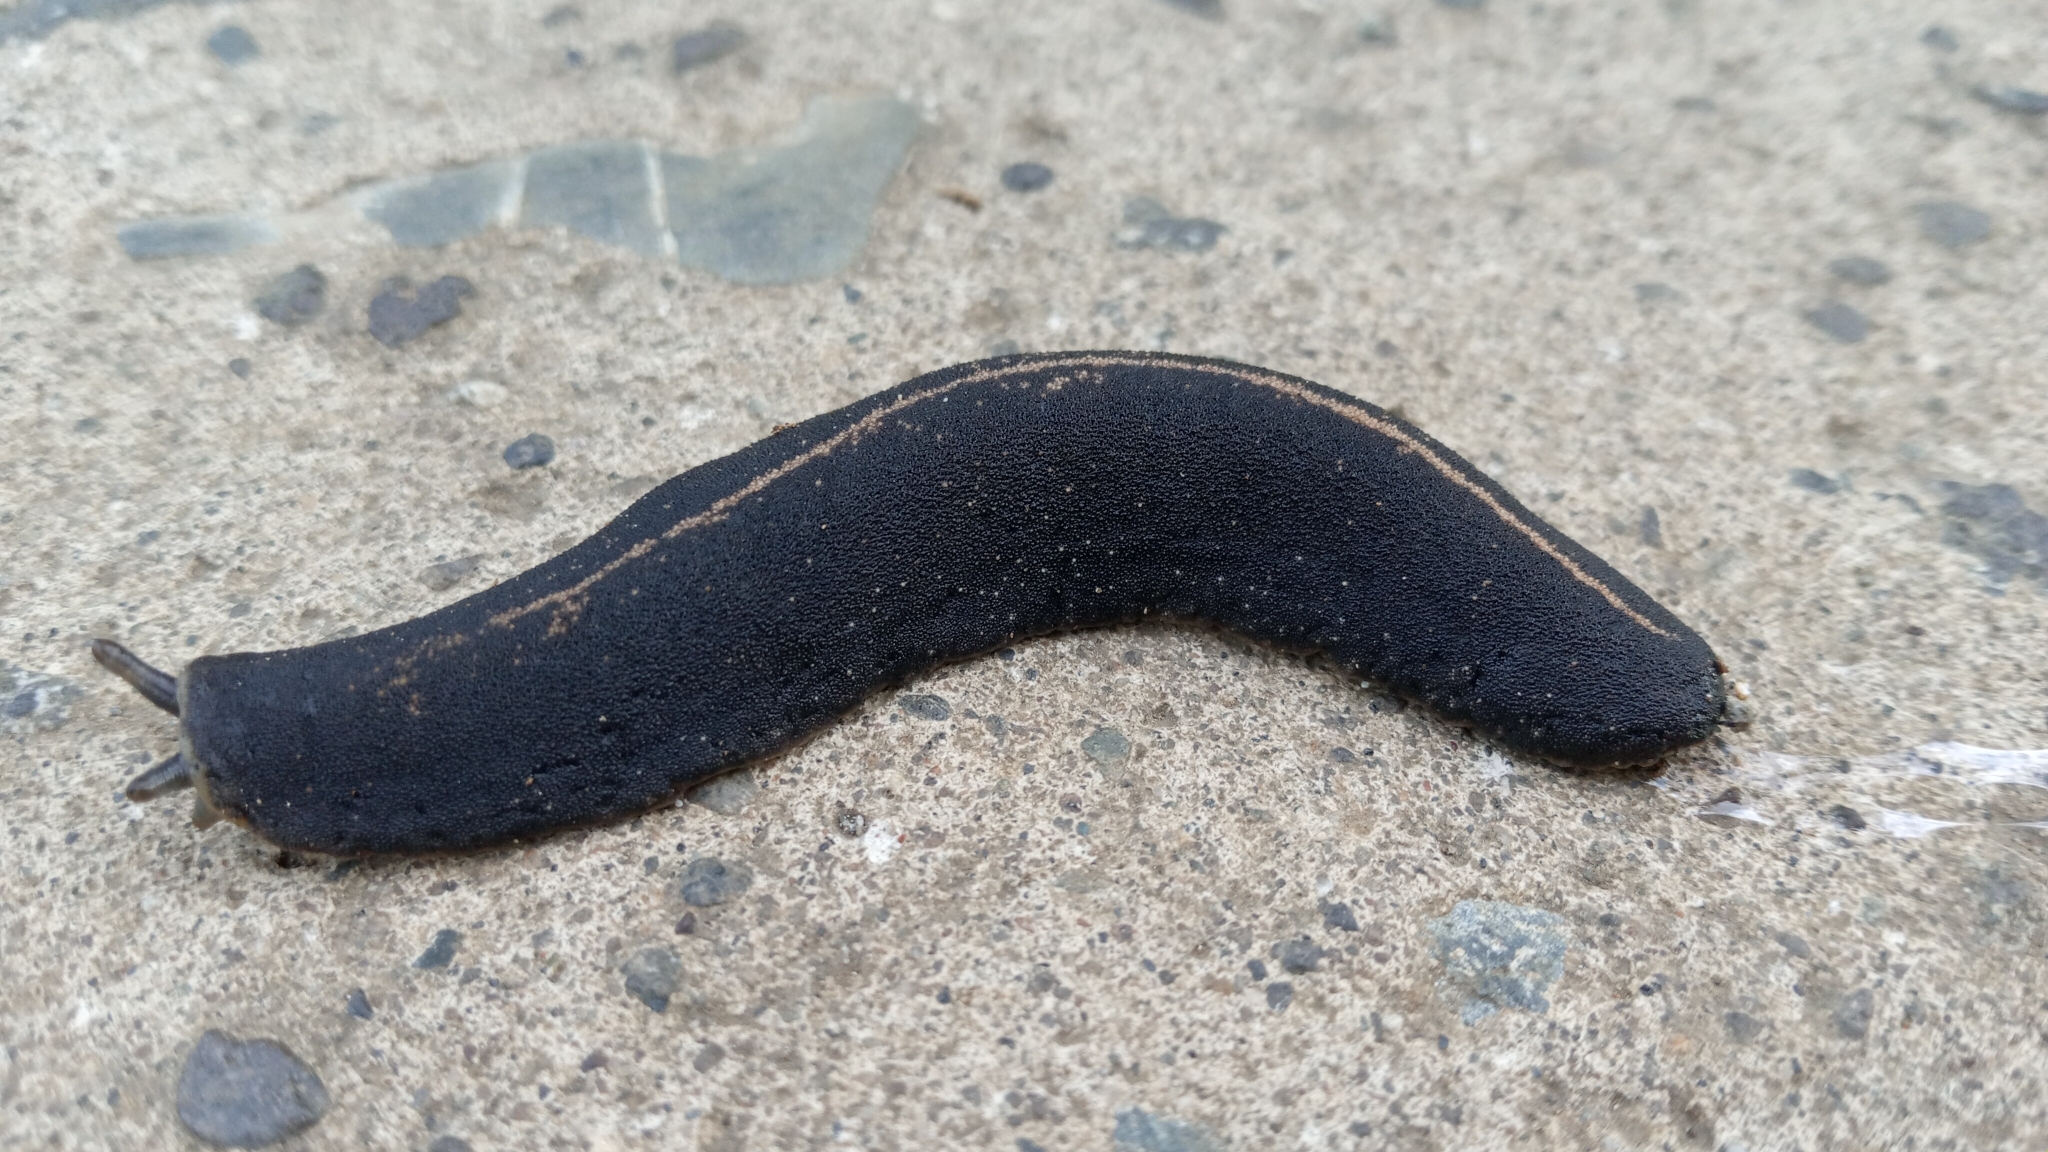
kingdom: Animalia
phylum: Mollusca
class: Gastropoda
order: Systellommatophora
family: Veronicellidae
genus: Laevicaulis
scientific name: Laevicaulis alte
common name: Tropical leatherleaf
